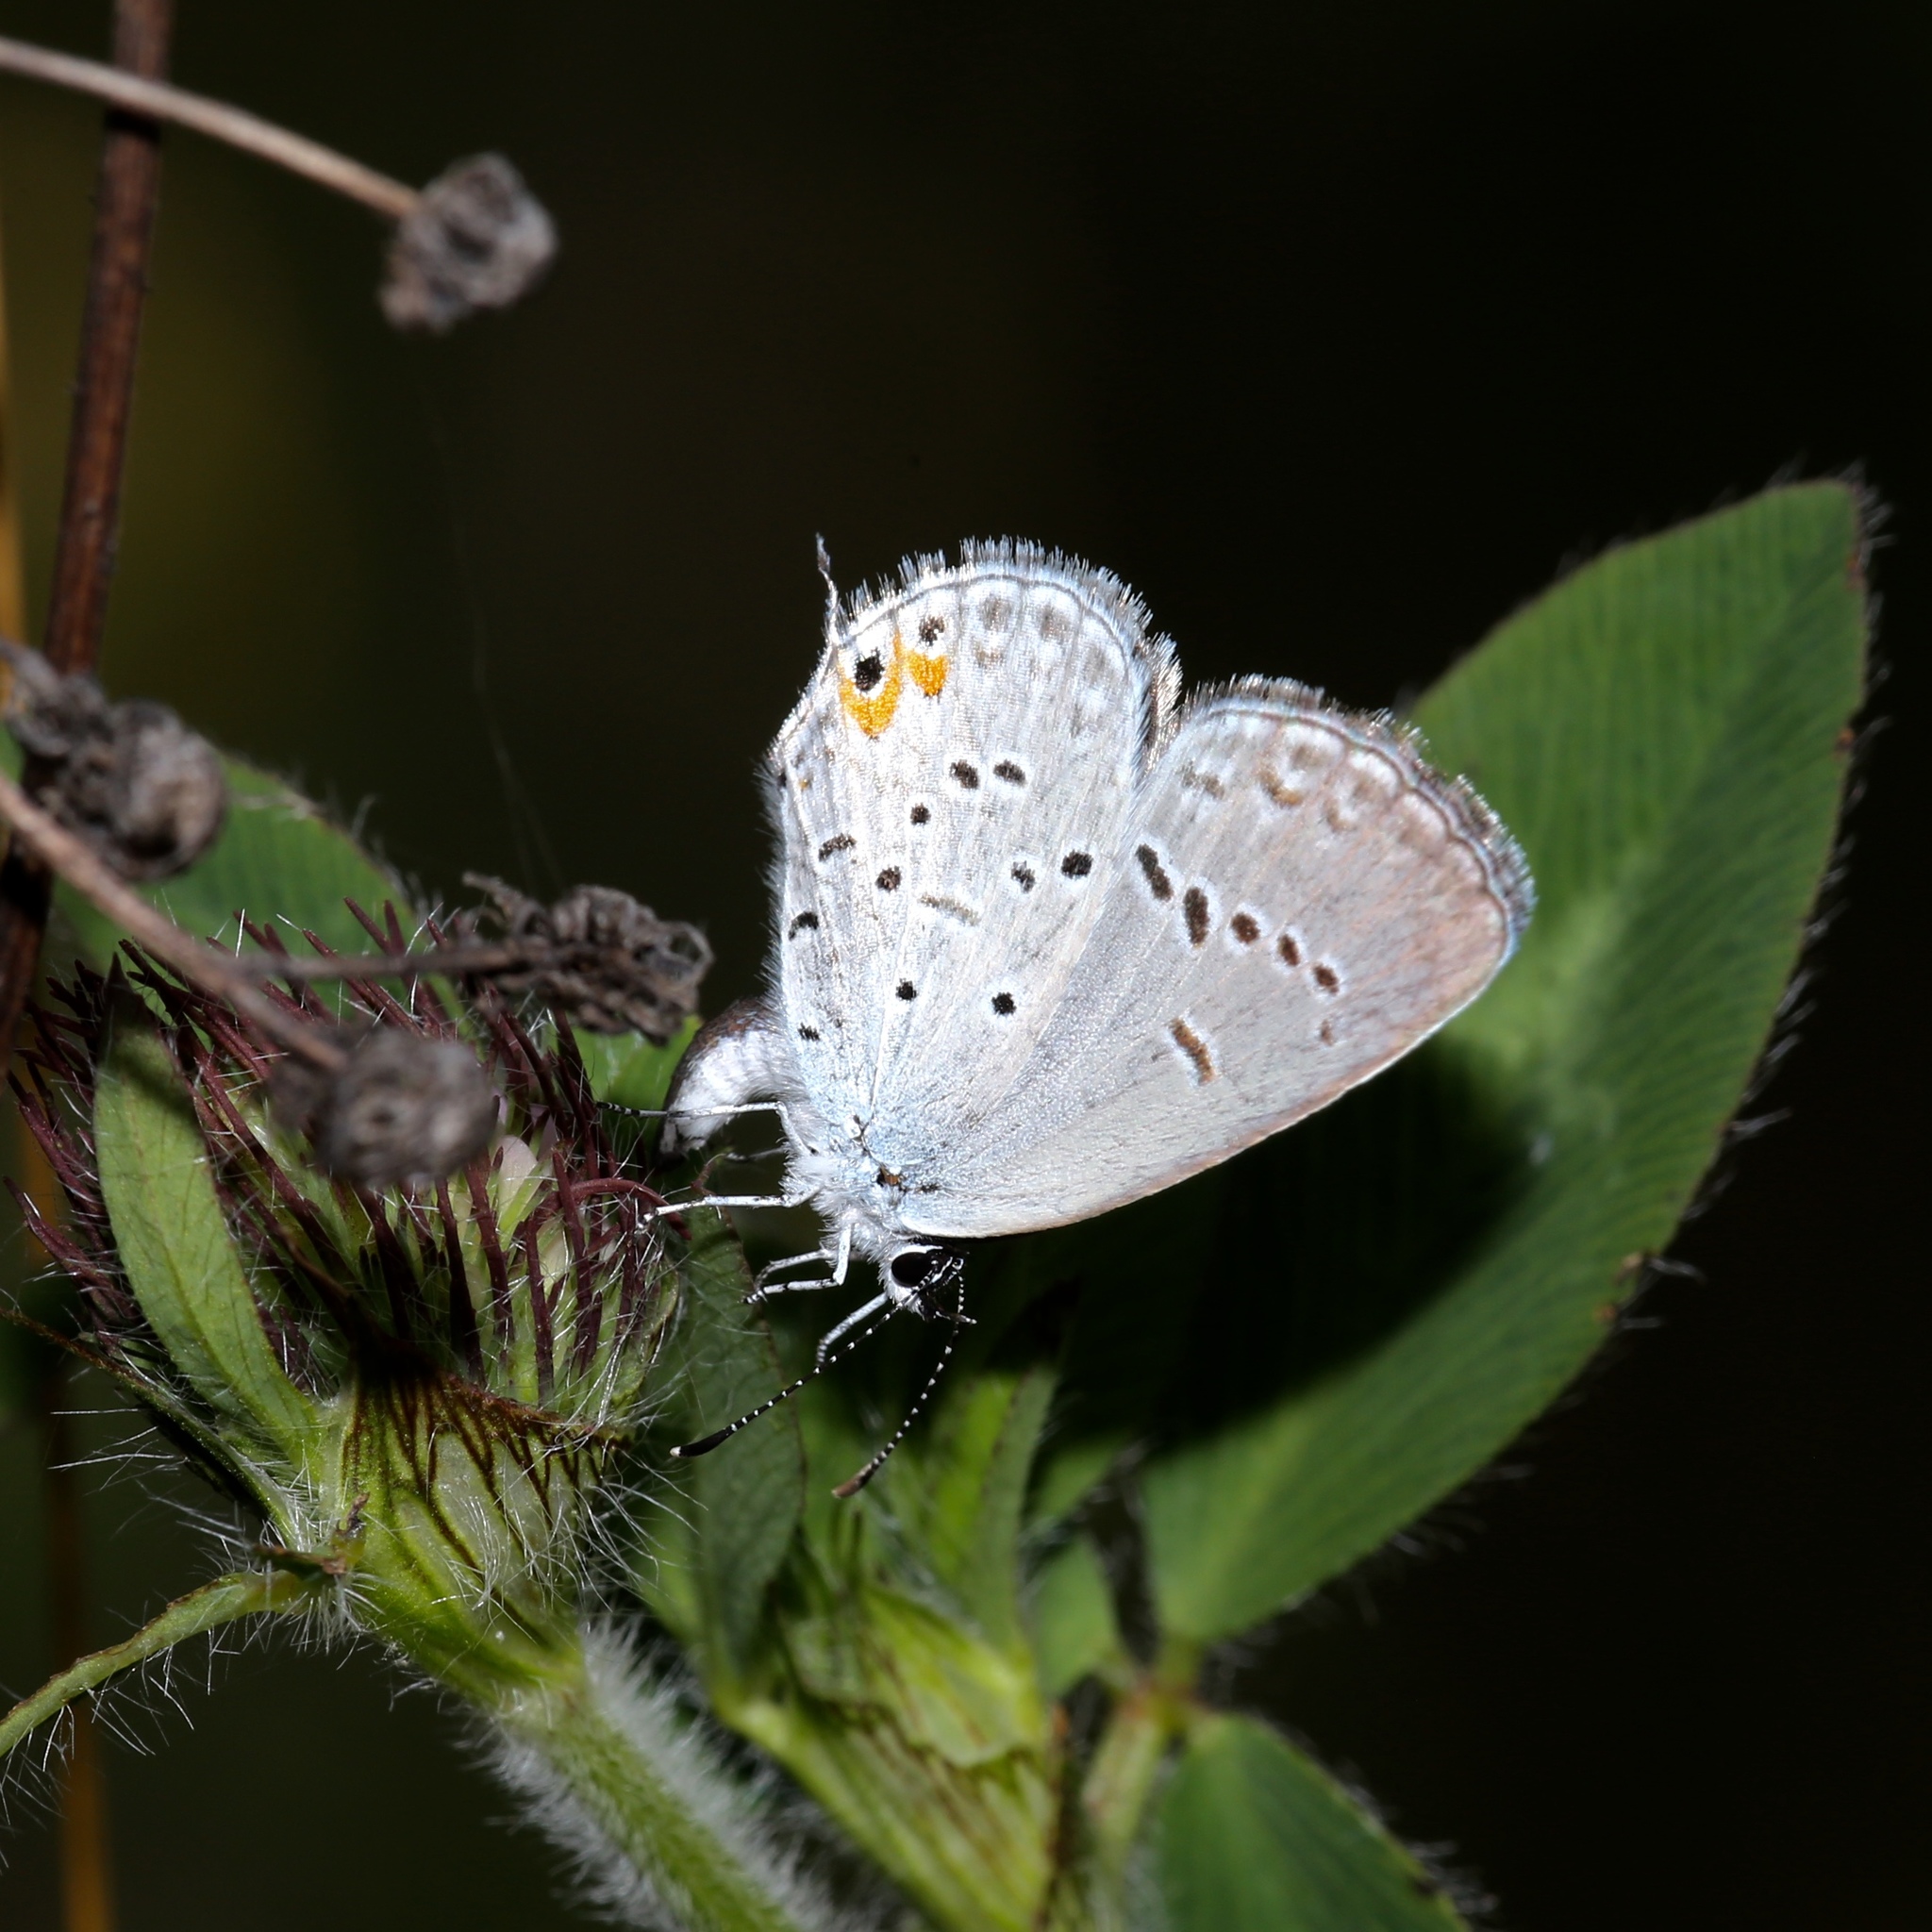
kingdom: Animalia
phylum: Arthropoda
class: Insecta
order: Lepidoptera
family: Lycaenidae
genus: Elkalyce
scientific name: Elkalyce comyntas
